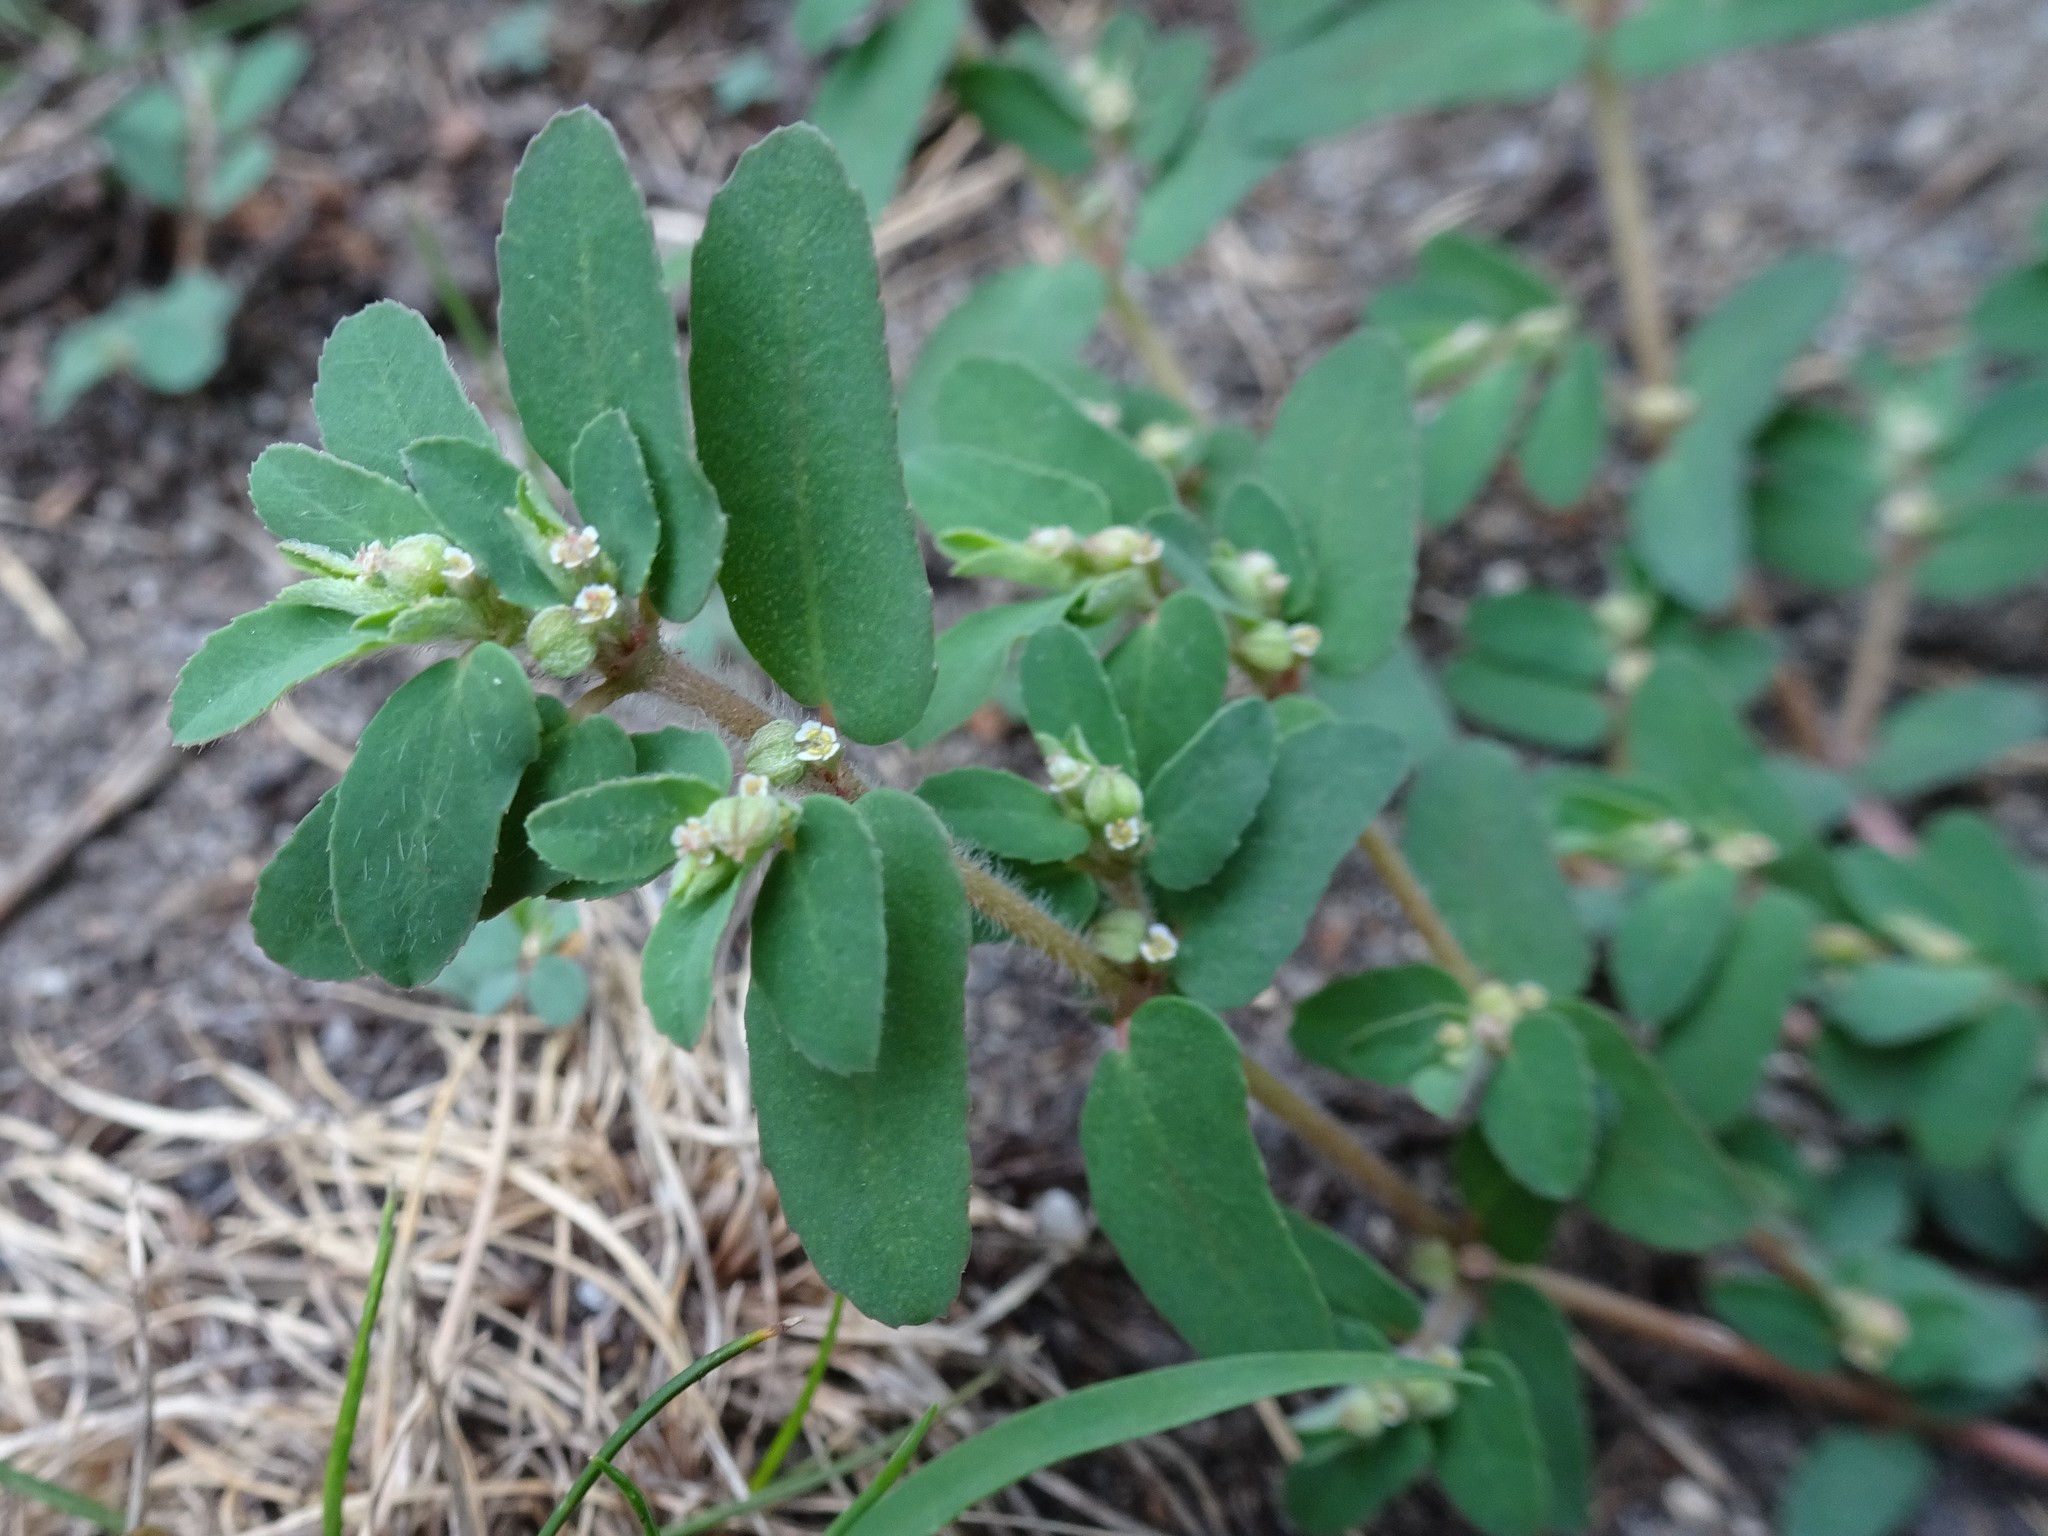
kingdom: Plantae
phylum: Tracheophyta
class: Magnoliopsida
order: Malpighiales
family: Euphorbiaceae
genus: Euphorbia
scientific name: Euphorbia maculata
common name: Spotted spurge
